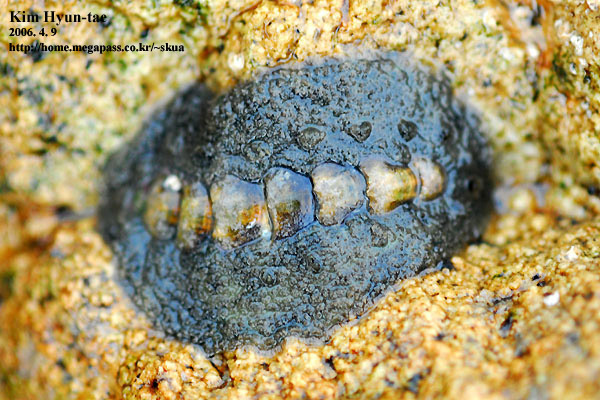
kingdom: Animalia
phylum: Mollusca
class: Polyplacophora
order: Chitonida
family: Acanthochitonidae
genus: Acanthochitona
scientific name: Acanthochitona defilippii
